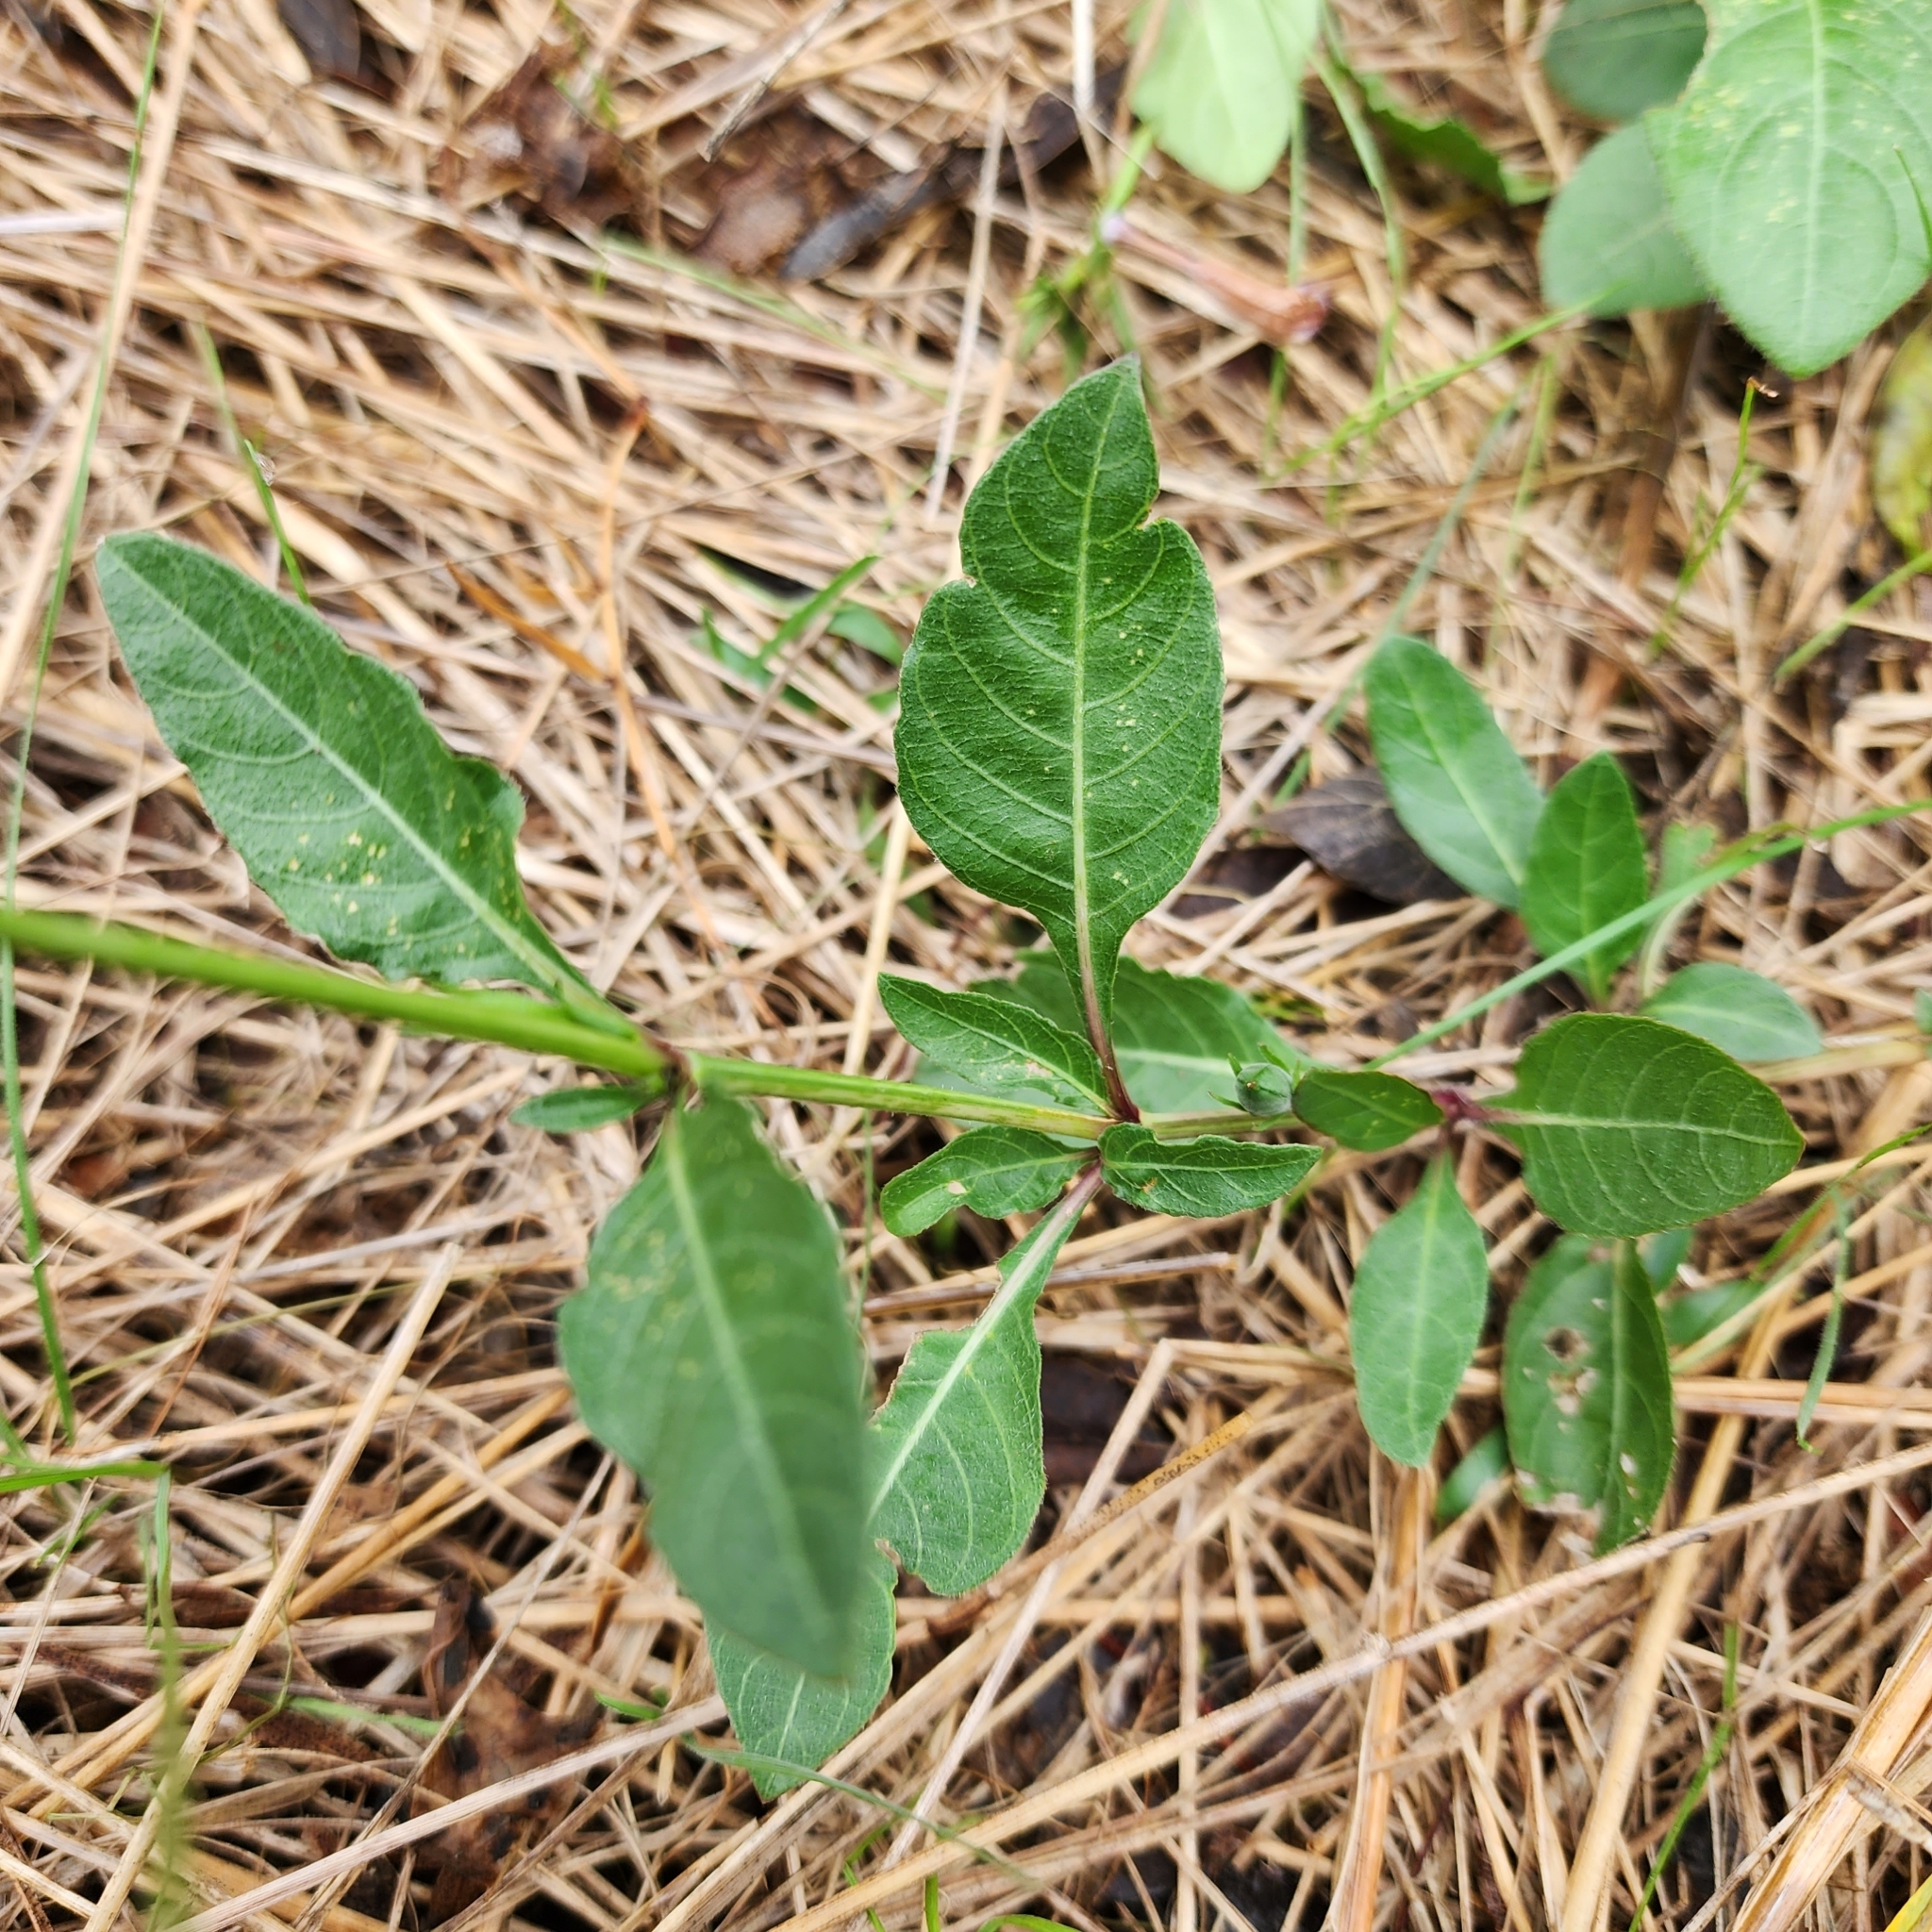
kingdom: Plantae
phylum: Tracheophyta
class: Magnoliopsida
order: Lamiales
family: Acanthaceae
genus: Ruellia
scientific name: Ruellia ciliatiflora
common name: Hairyflower wild petunia
